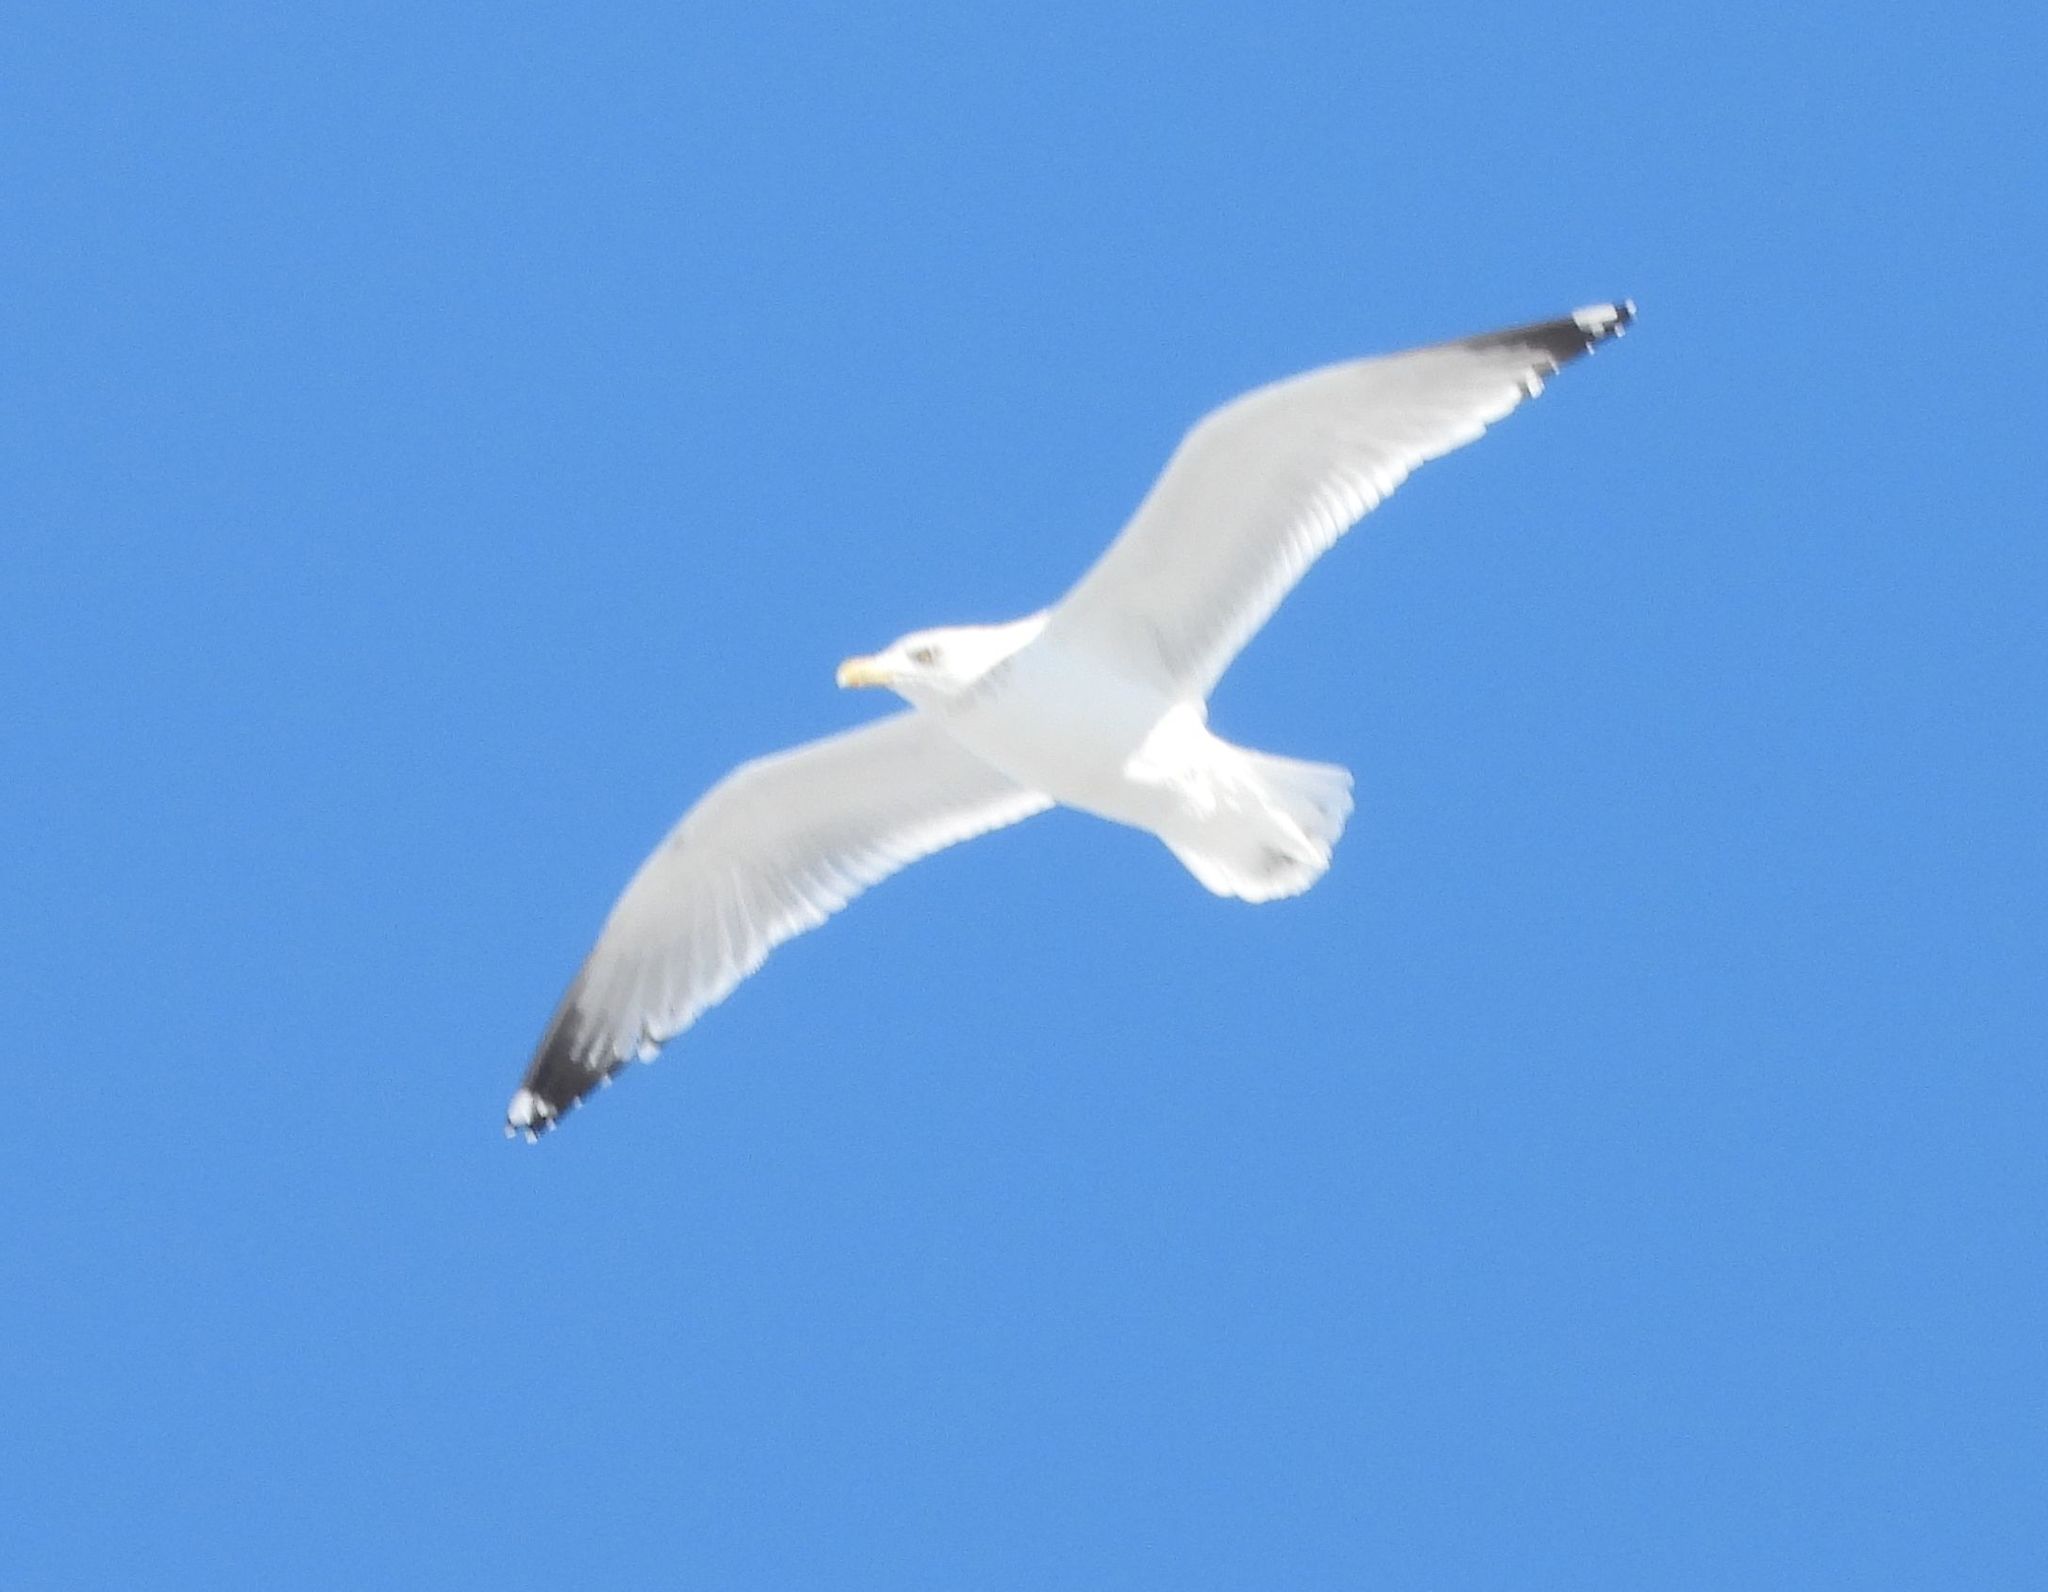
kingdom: Animalia
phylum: Chordata
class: Aves
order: Charadriiformes
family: Laridae
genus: Larus
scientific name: Larus argentatus
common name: Herring gull
